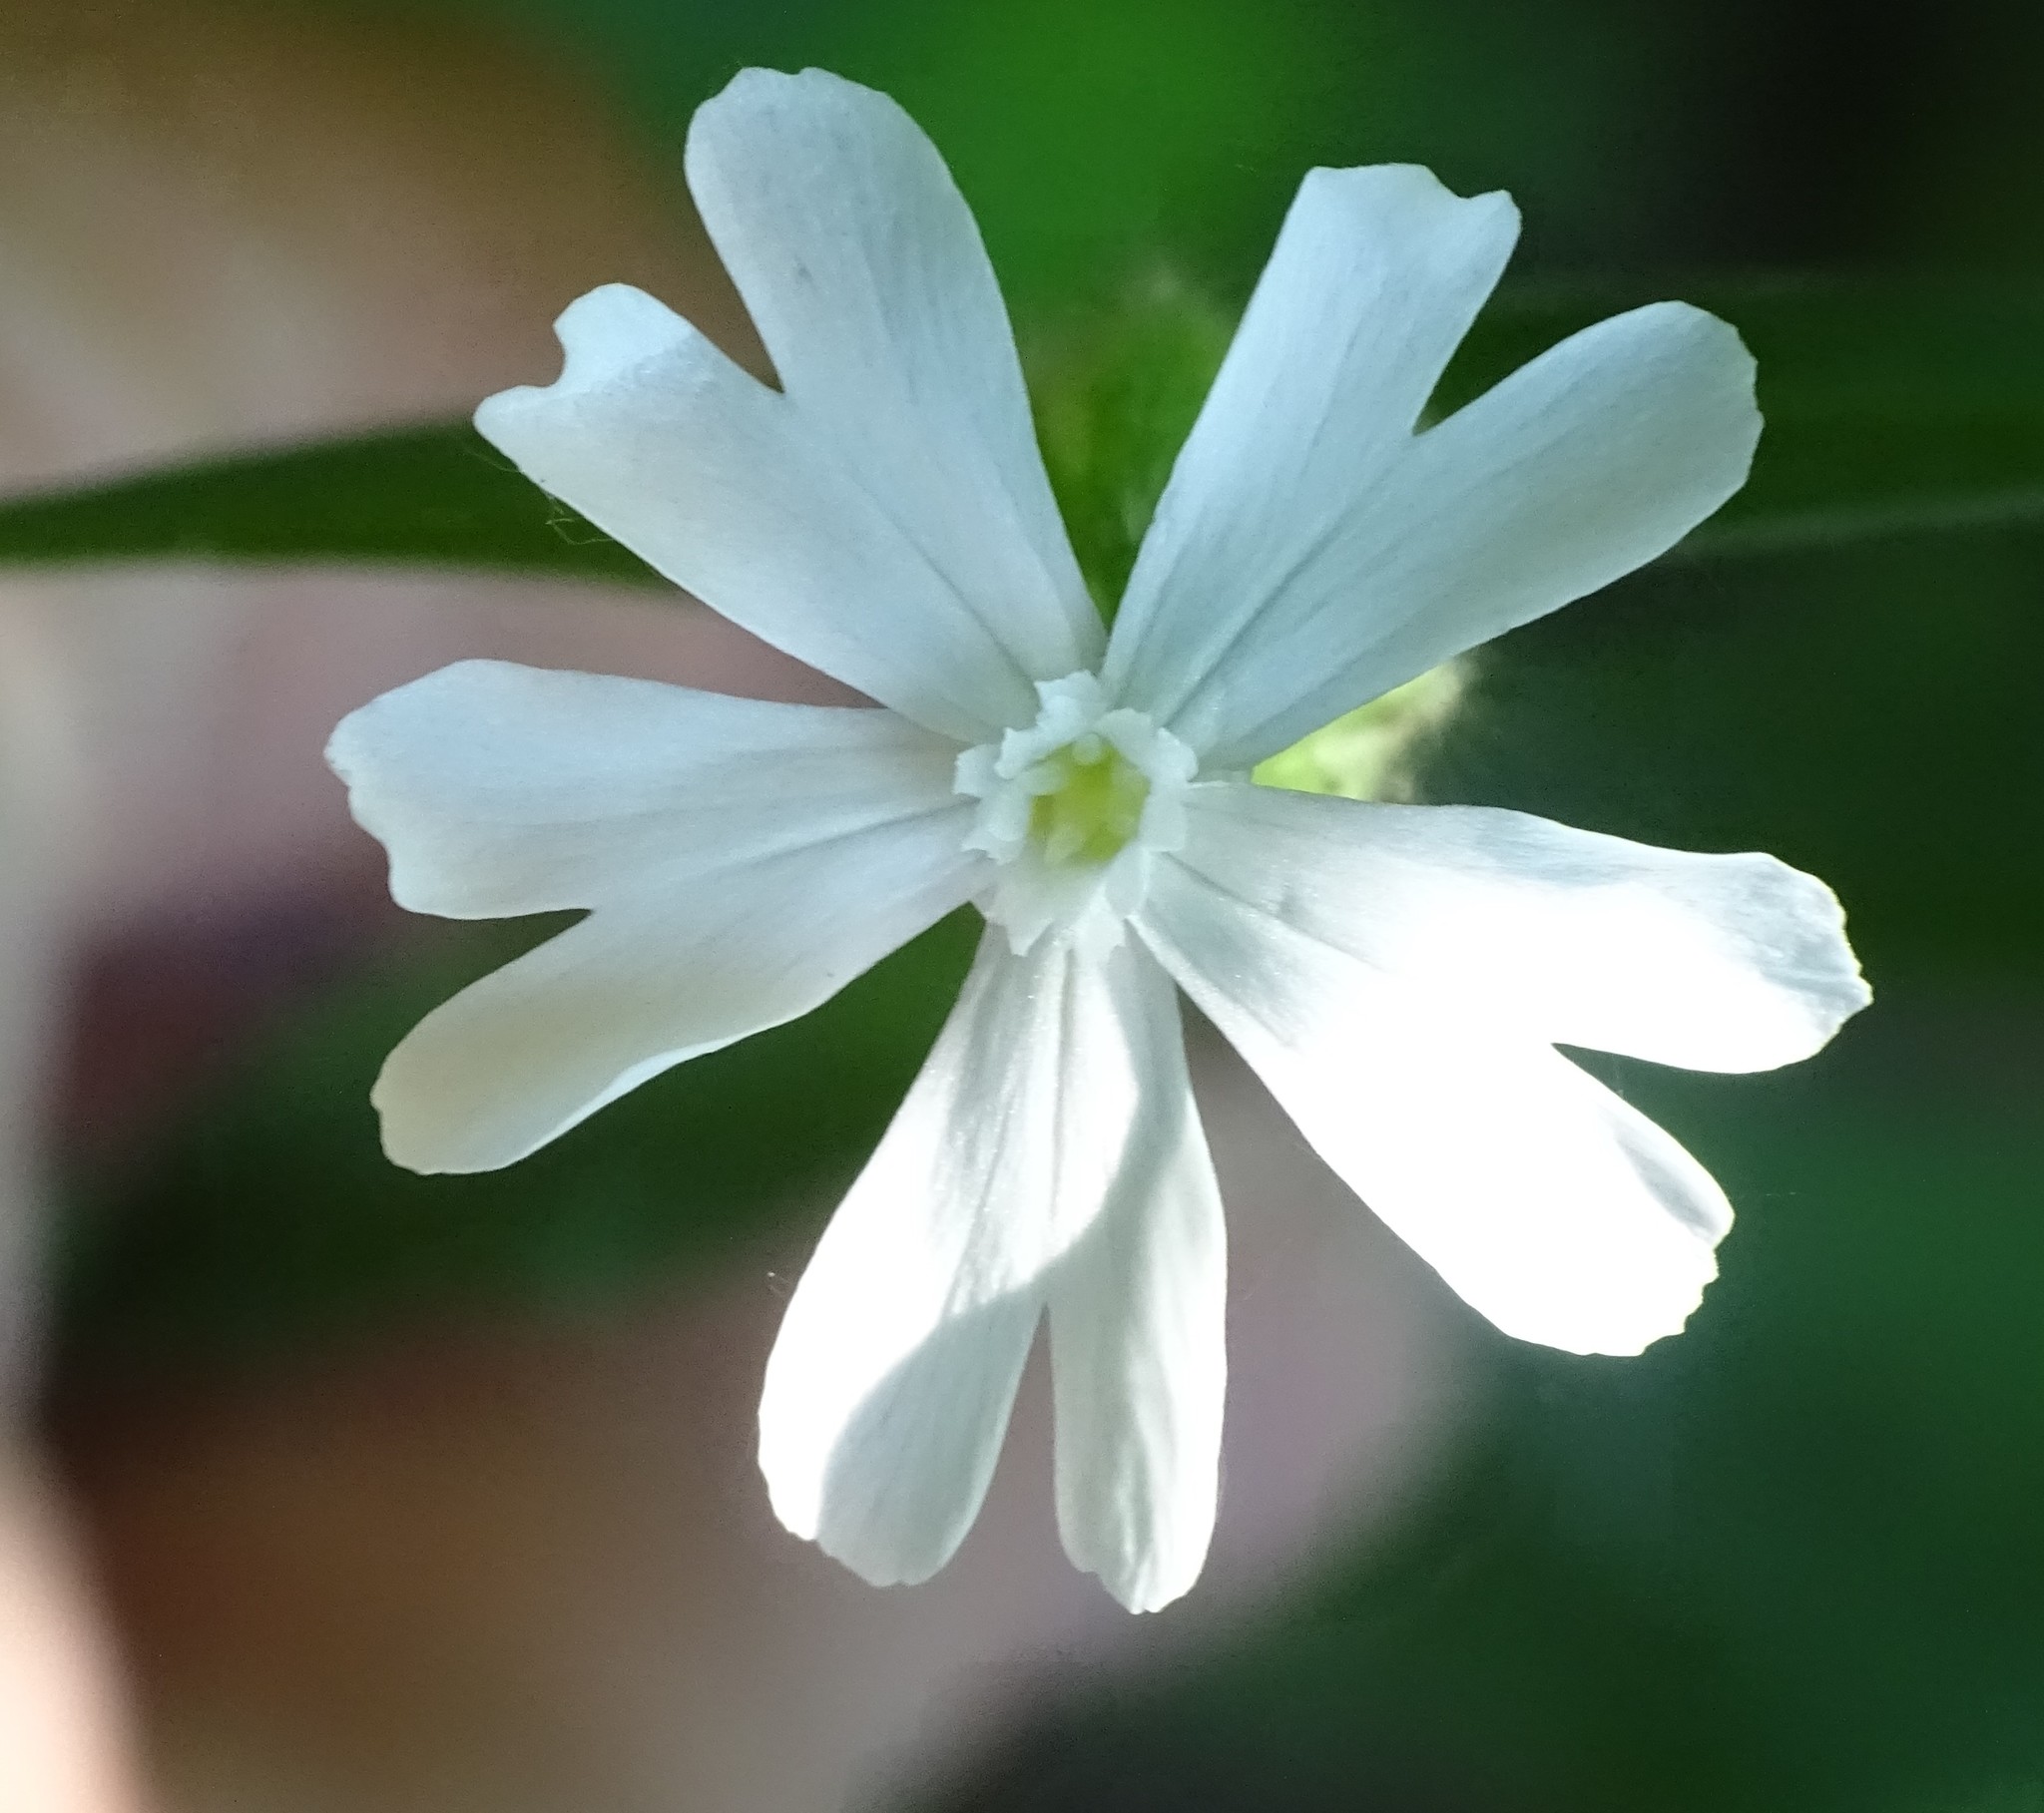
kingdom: Plantae
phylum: Tracheophyta
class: Magnoliopsida
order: Caryophyllales
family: Caryophyllaceae
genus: Silene
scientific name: Silene latifolia
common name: White campion
